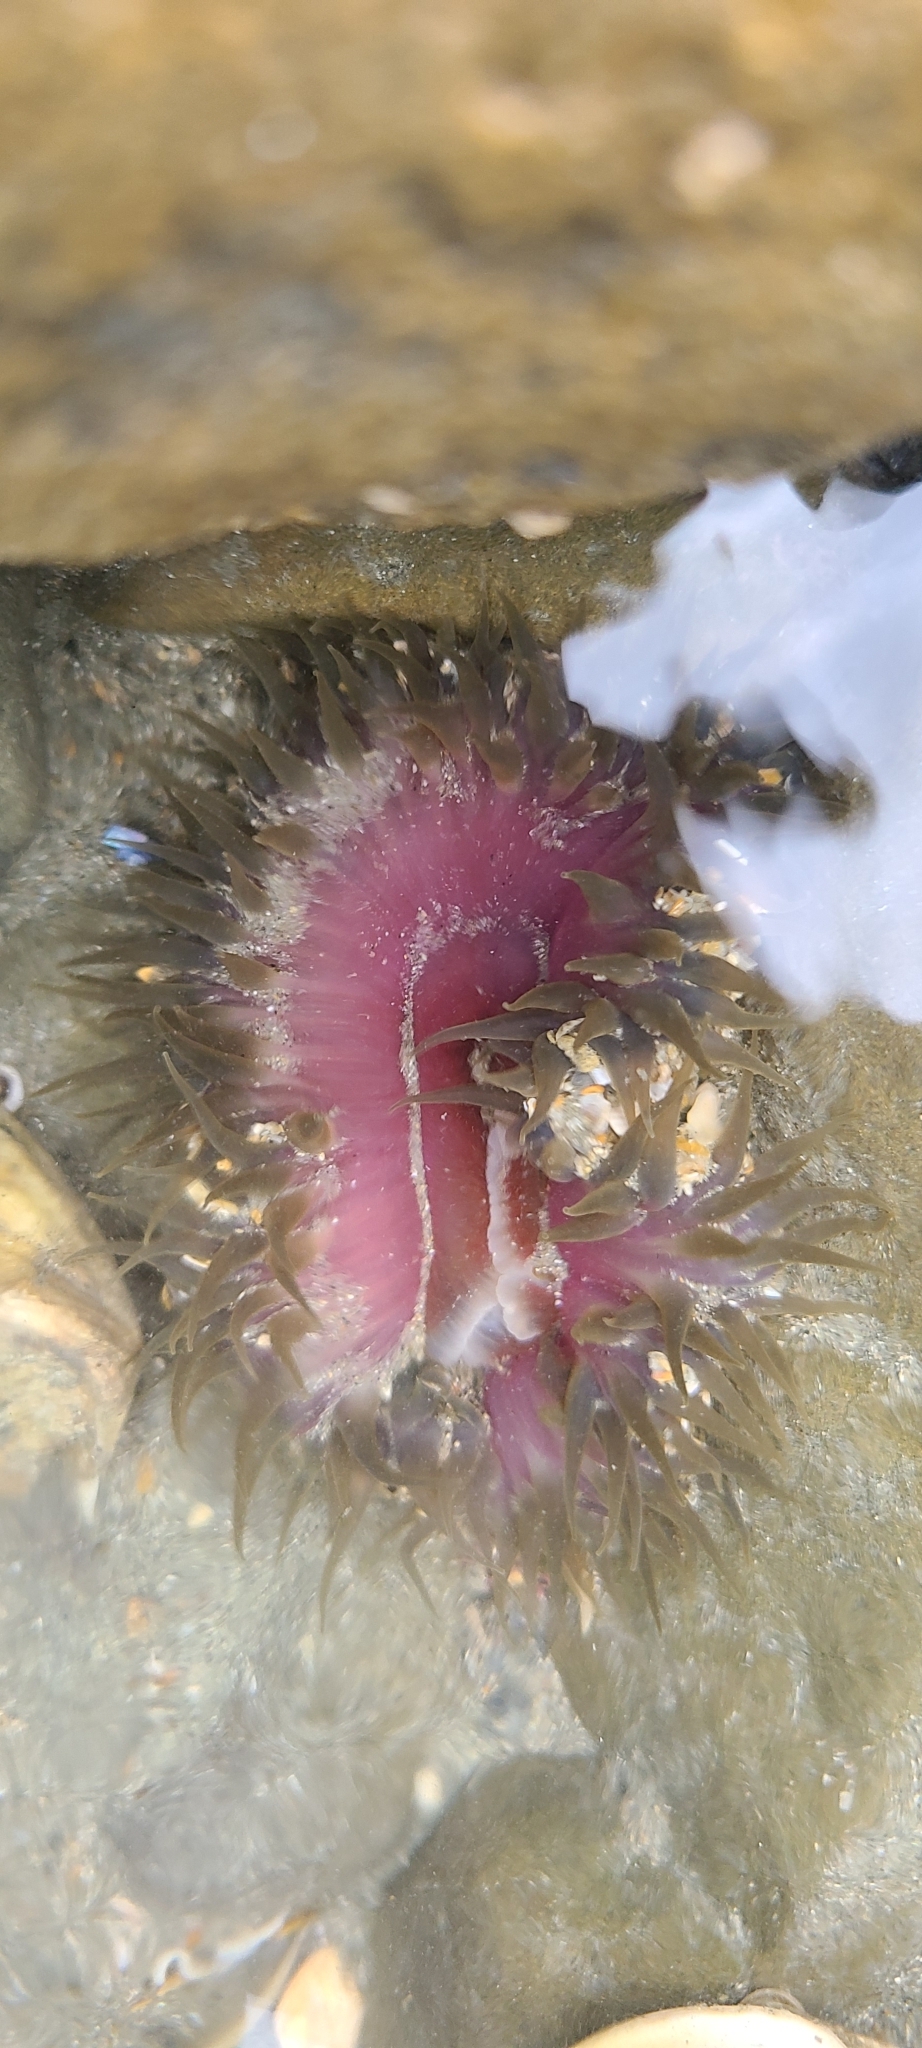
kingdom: Animalia
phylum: Cnidaria
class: Anthozoa
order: Actiniaria
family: Actiniidae
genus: Oulactis
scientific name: Oulactis magna
